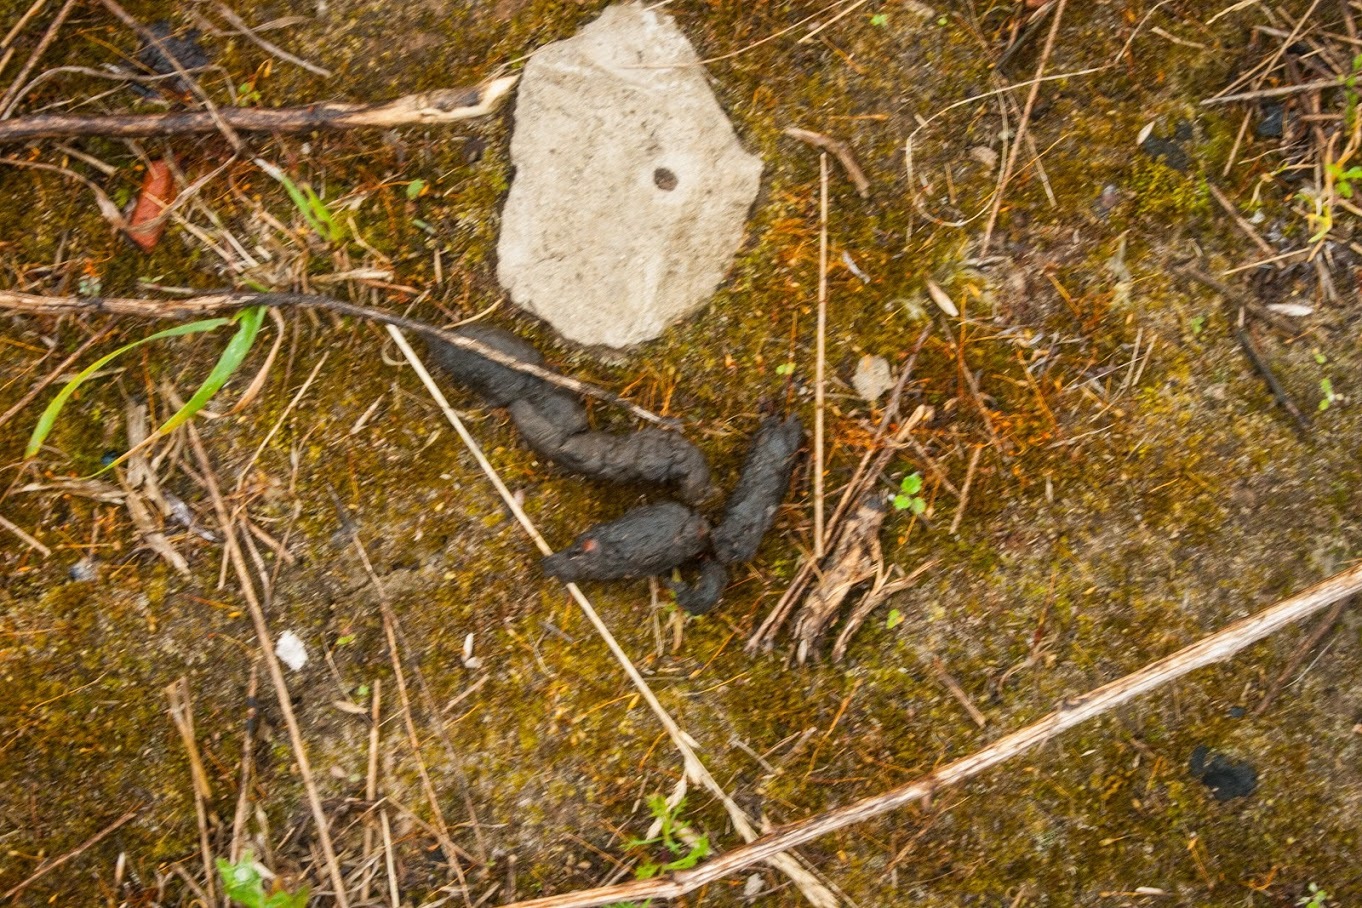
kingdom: Animalia
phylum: Chordata
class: Mammalia
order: Carnivora
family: Canidae
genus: Nyctereutes
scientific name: Nyctereutes procyonoides
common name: Raccoon dog
